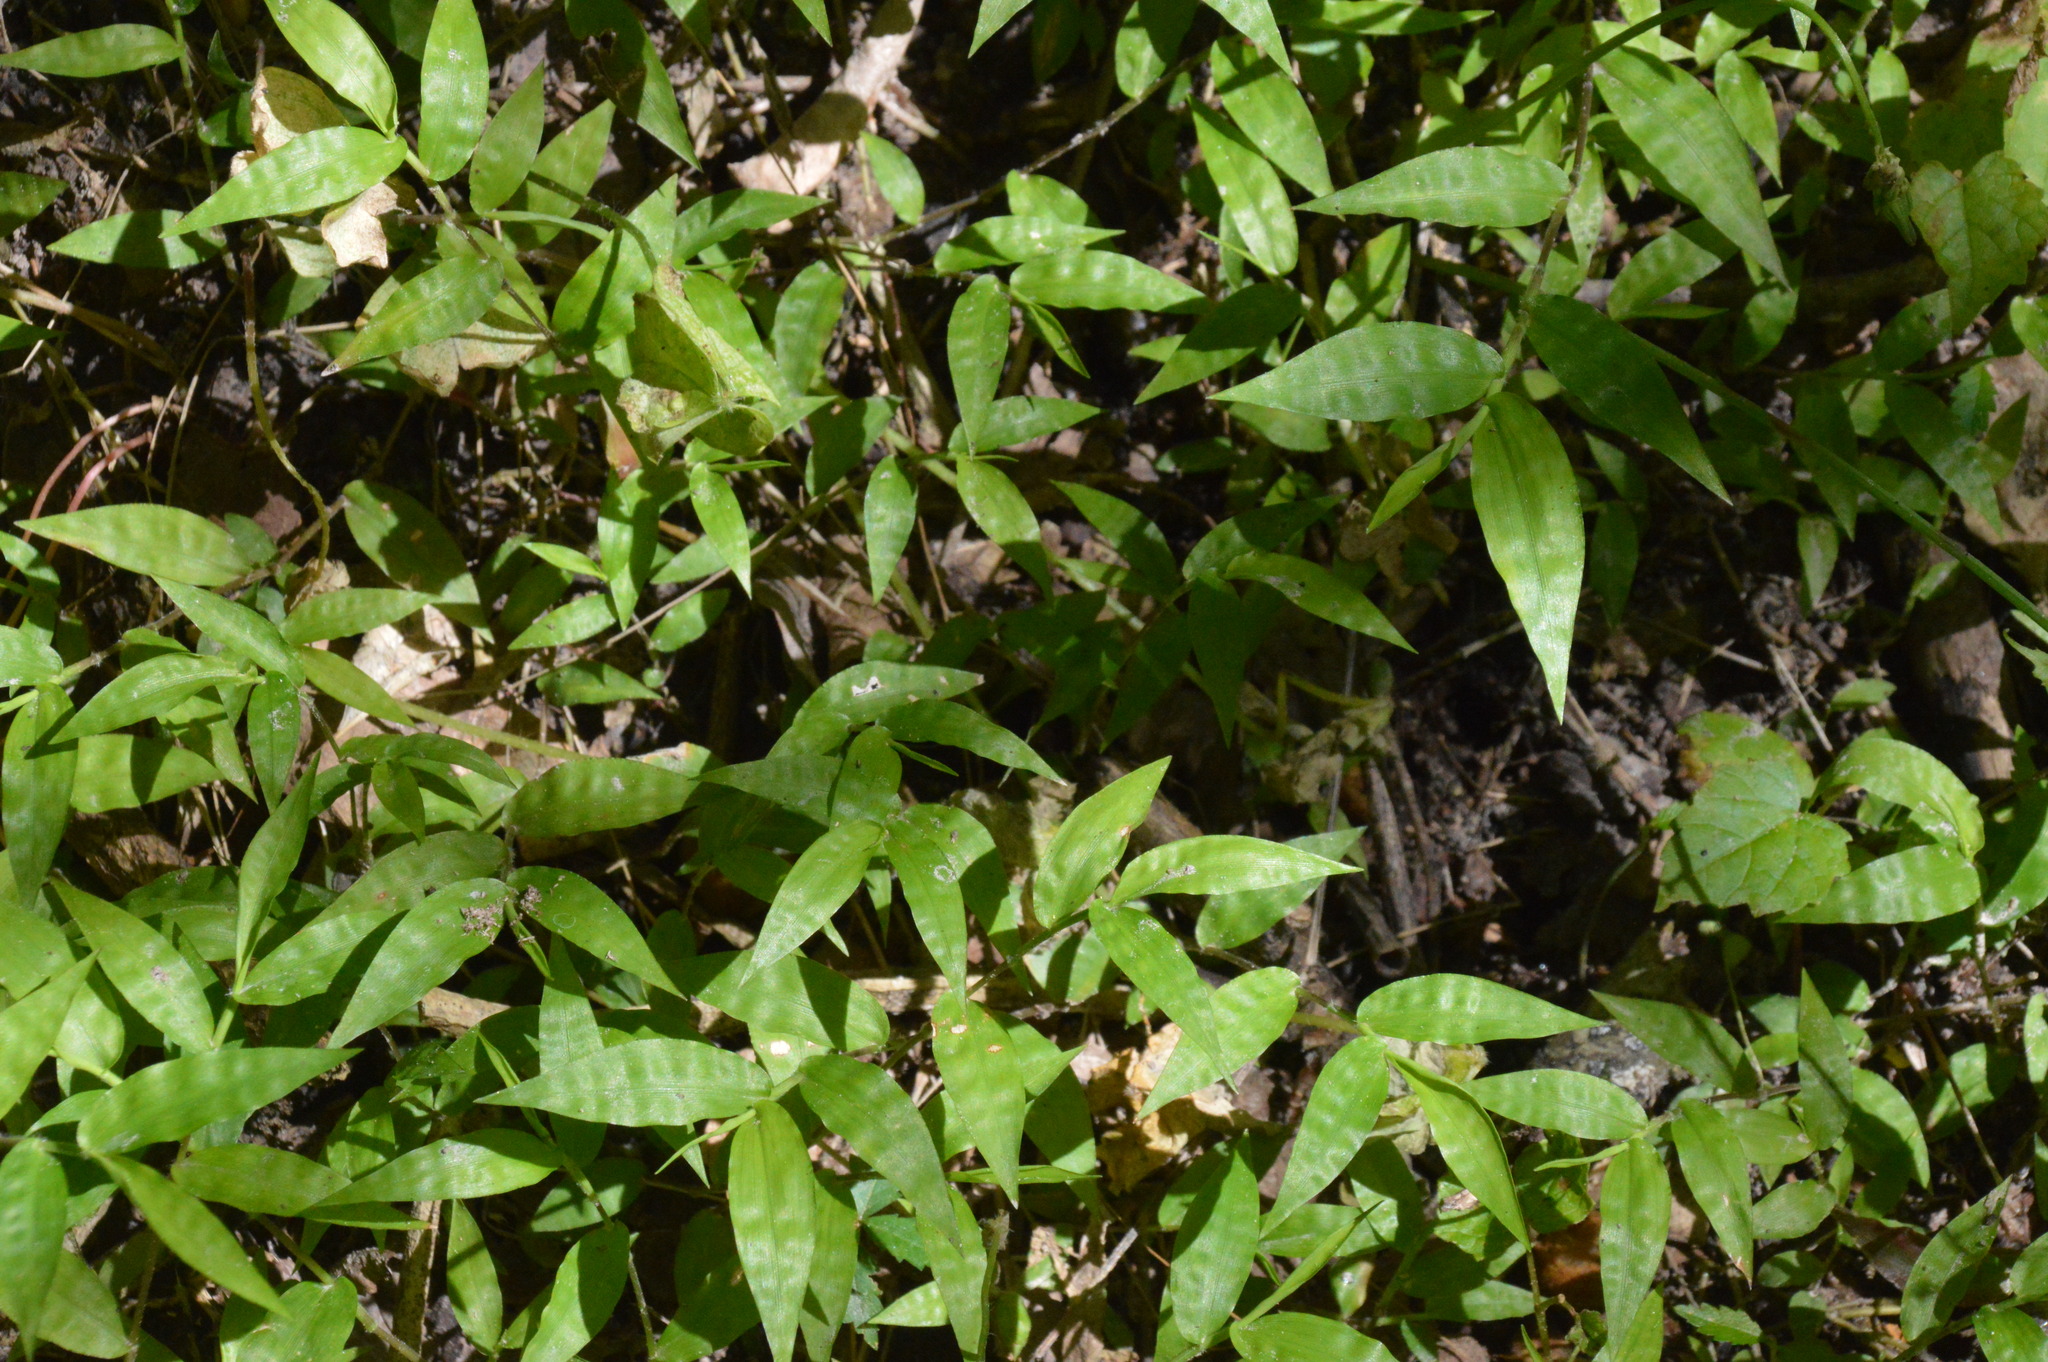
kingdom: Plantae
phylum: Tracheophyta
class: Liliopsida
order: Poales
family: Poaceae
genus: Oplismenus
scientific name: Oplismenus hirtellus
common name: Basketgrass
